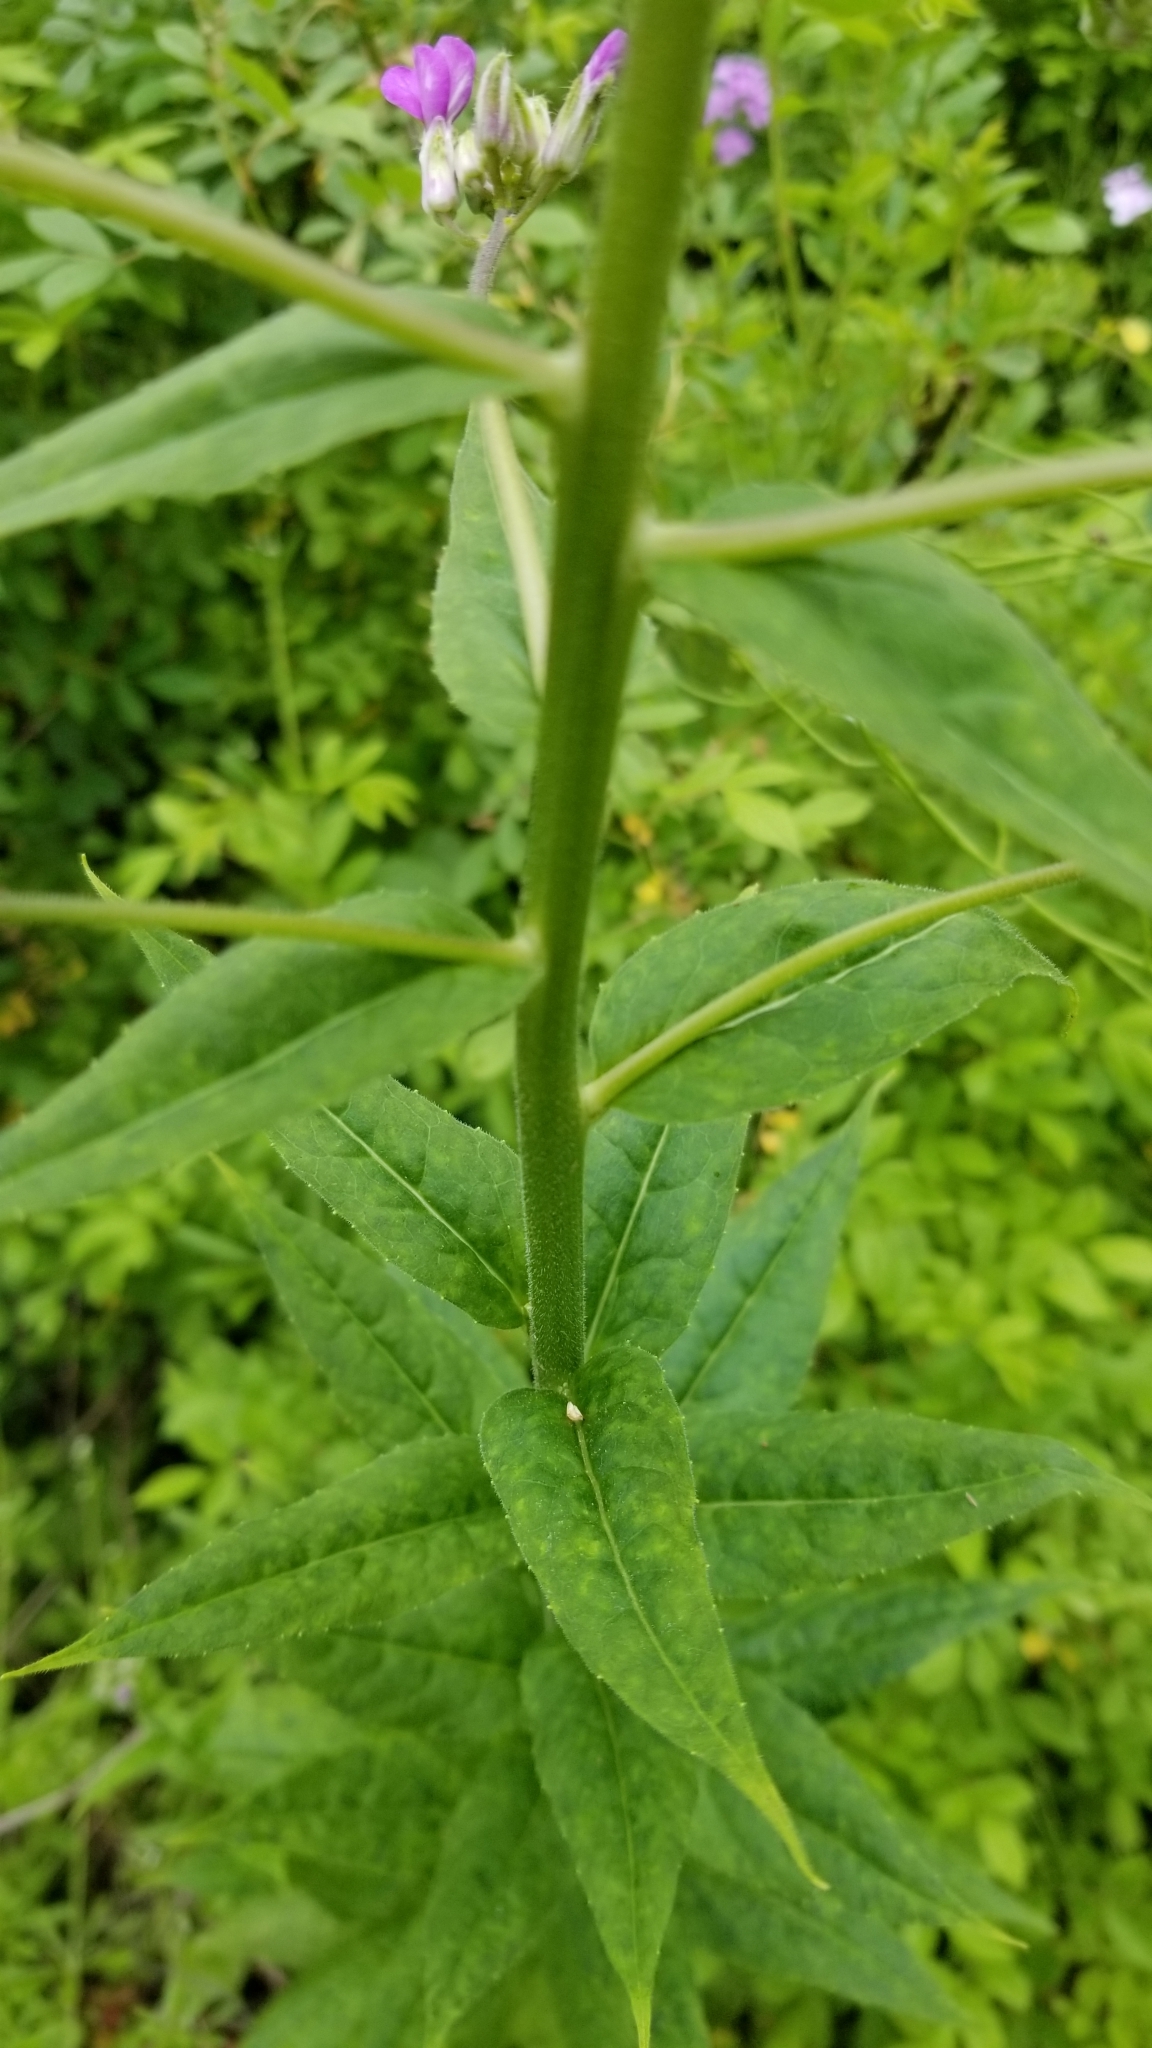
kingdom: Plantae
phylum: Tracheophyta
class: Magnoliopsida
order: Brassicales
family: Brassicaceae
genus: Hesperis
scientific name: Hesperis matronalis
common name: Dame's-violet
